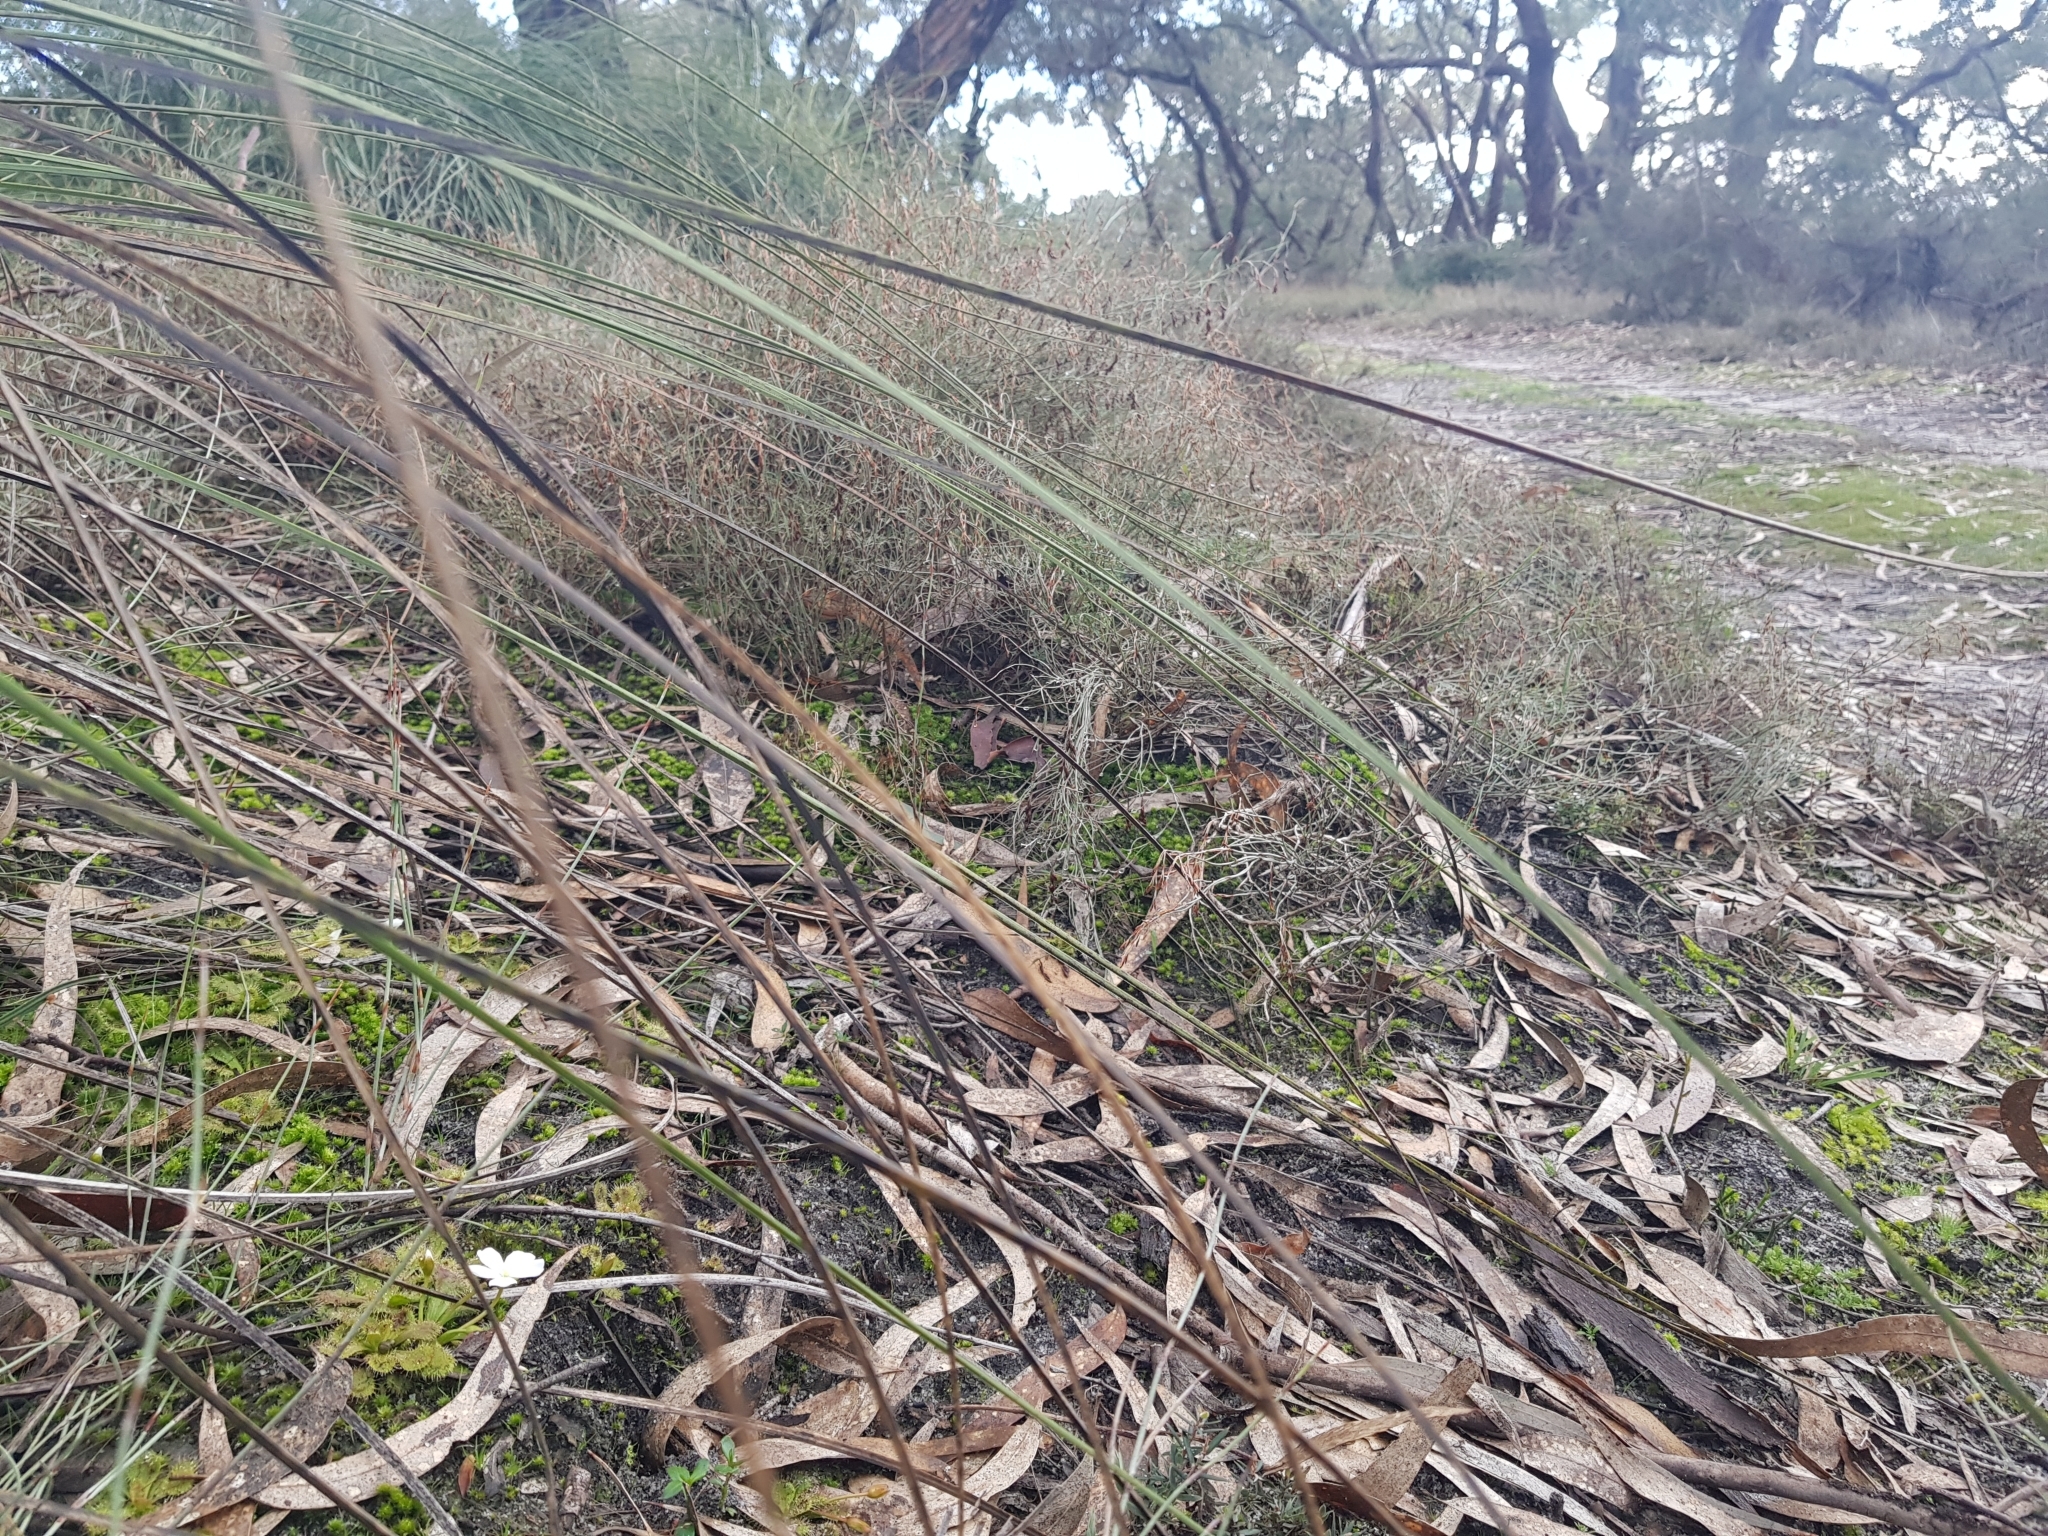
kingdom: Plantae
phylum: Tracheophyta
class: Magnoliopsida
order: Caryophyllales
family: Droseraceae
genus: Drosera
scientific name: Drosera aberrans
